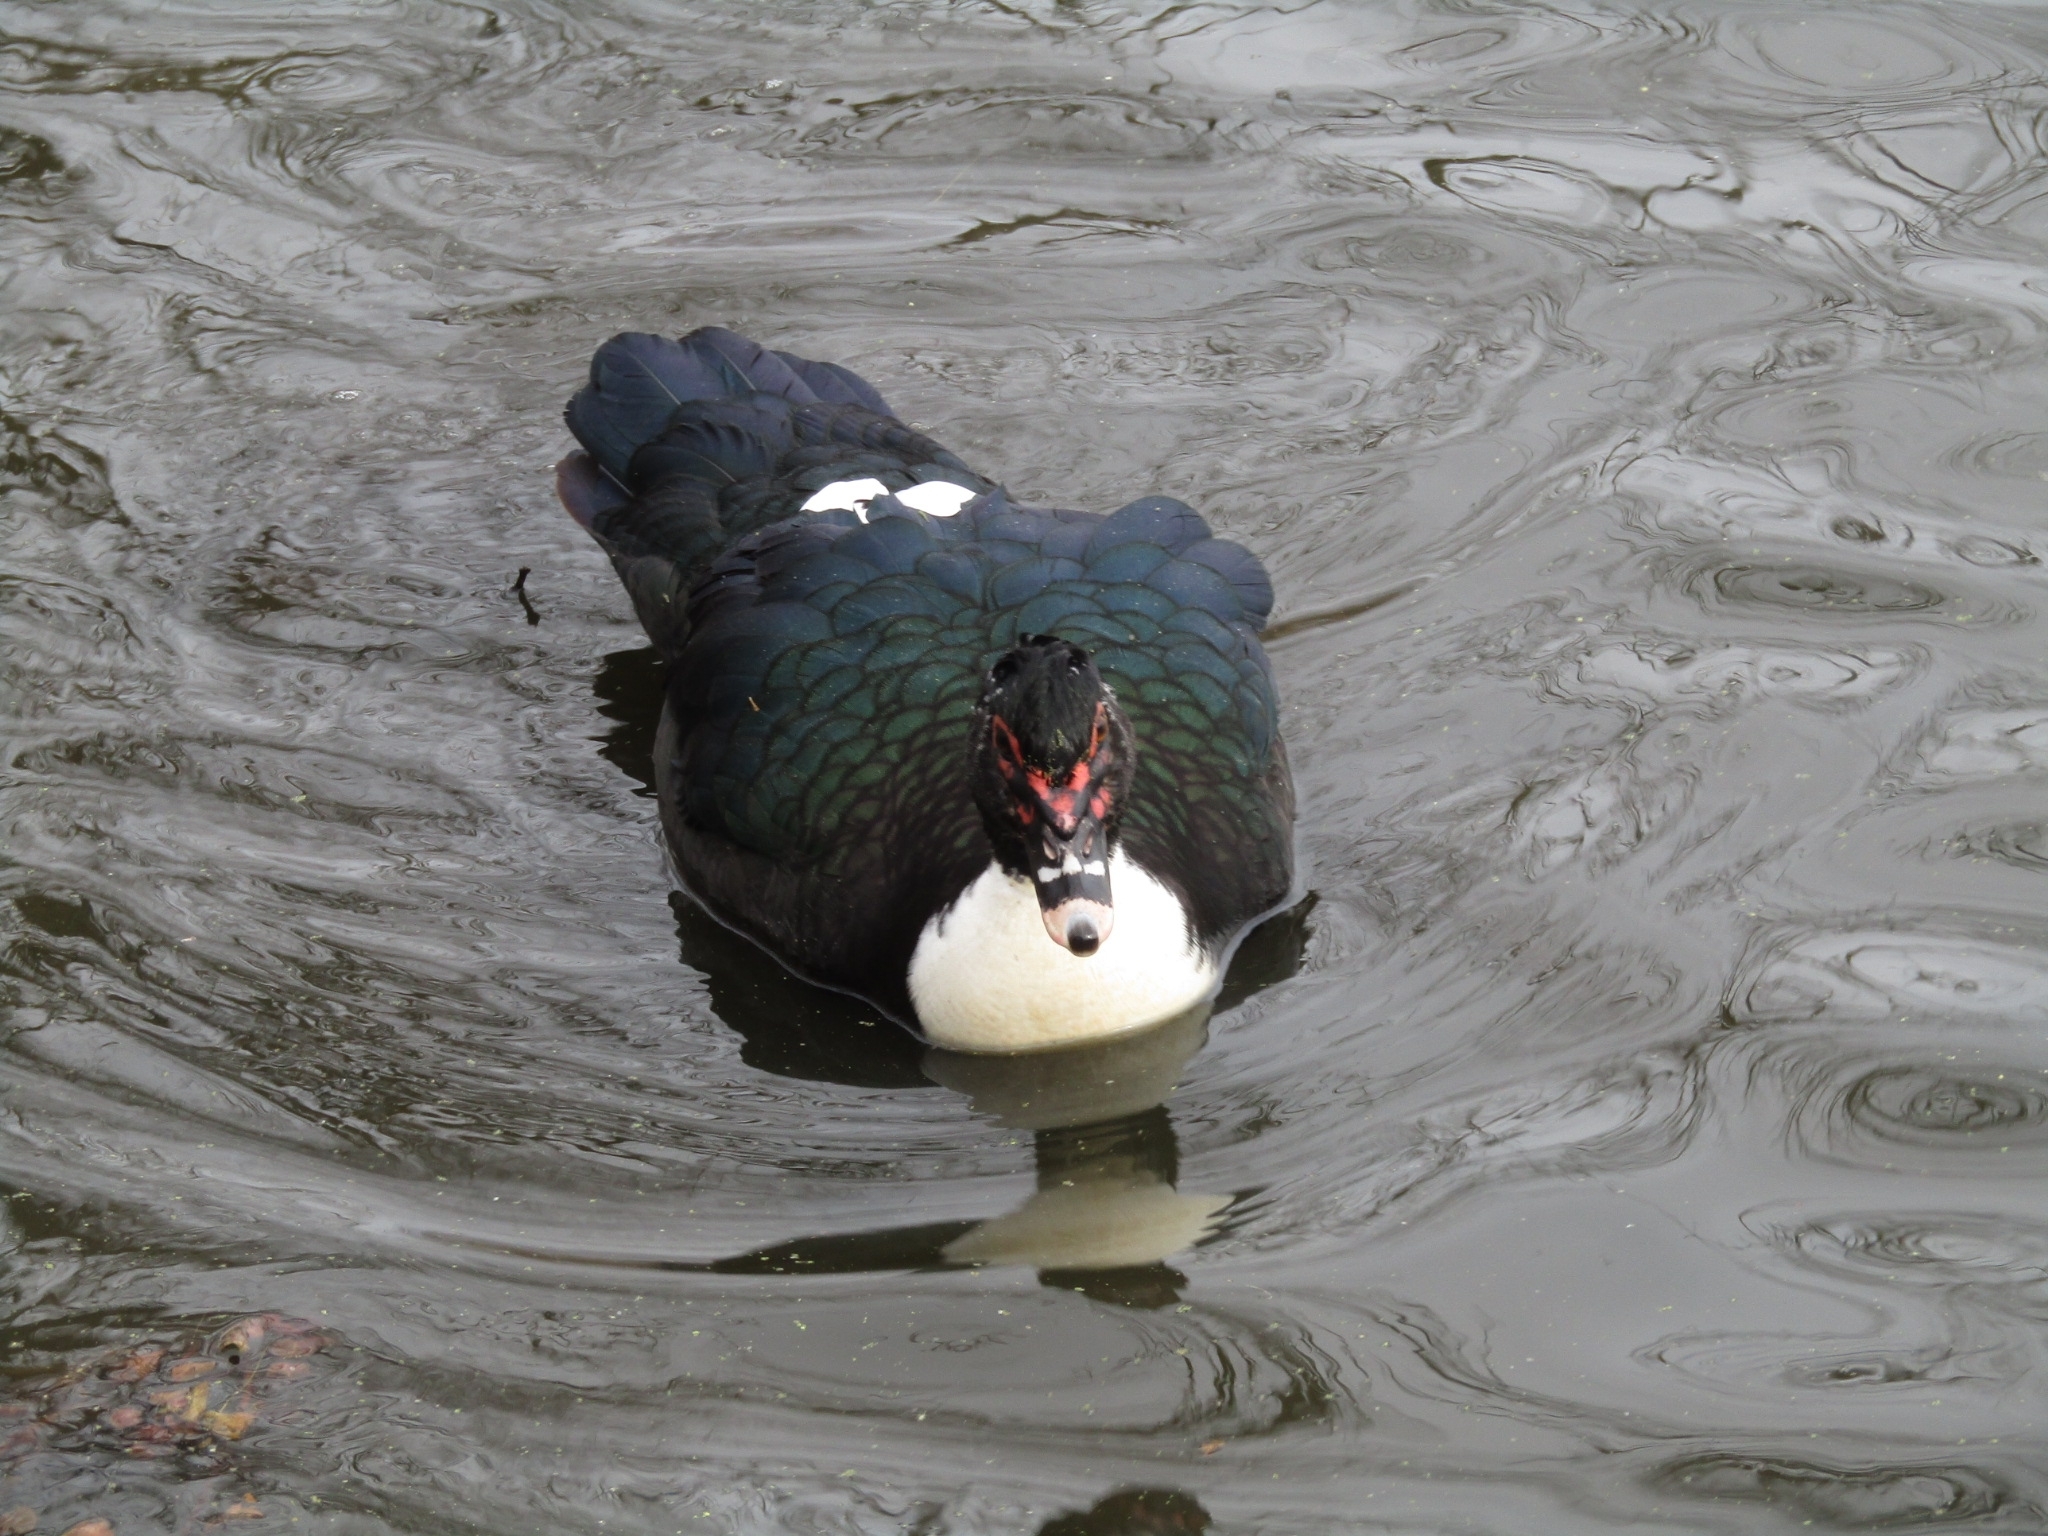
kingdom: Animalia
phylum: Chordata
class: Aves
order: Anseriformes
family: Anatidae
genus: Cairina
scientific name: Cairina moschata
